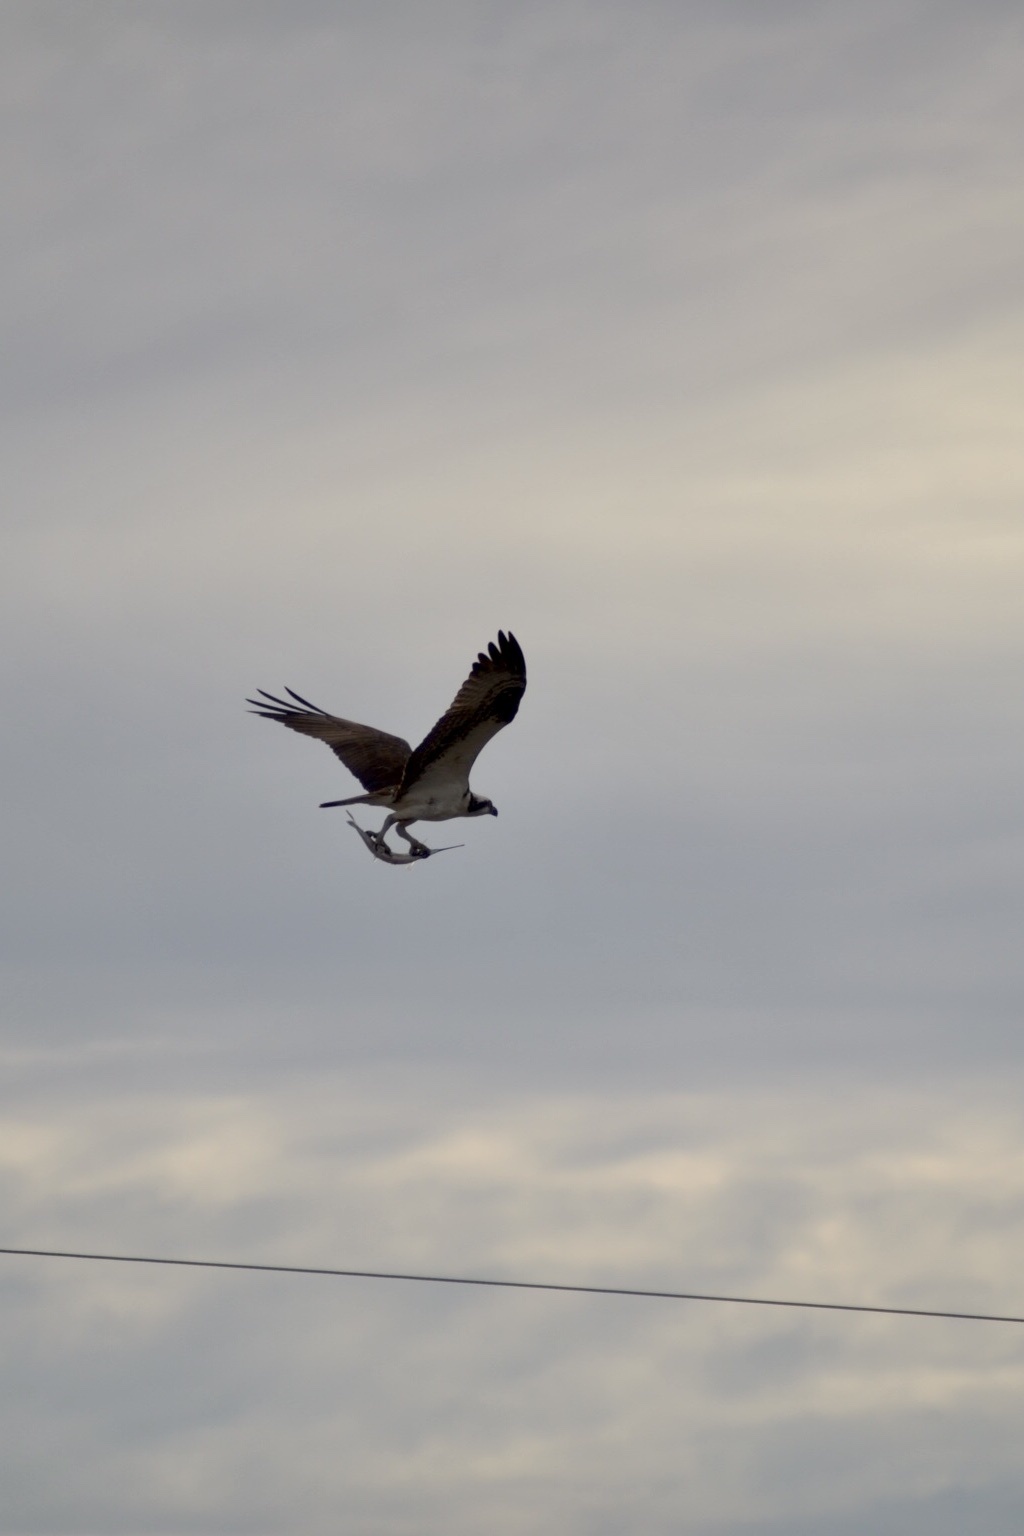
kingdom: Animalia
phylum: Chordata
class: Aves
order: Accipitriformes
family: Pandionidae
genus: Pandion
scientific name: Pandion haliaetus
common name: Osprey
